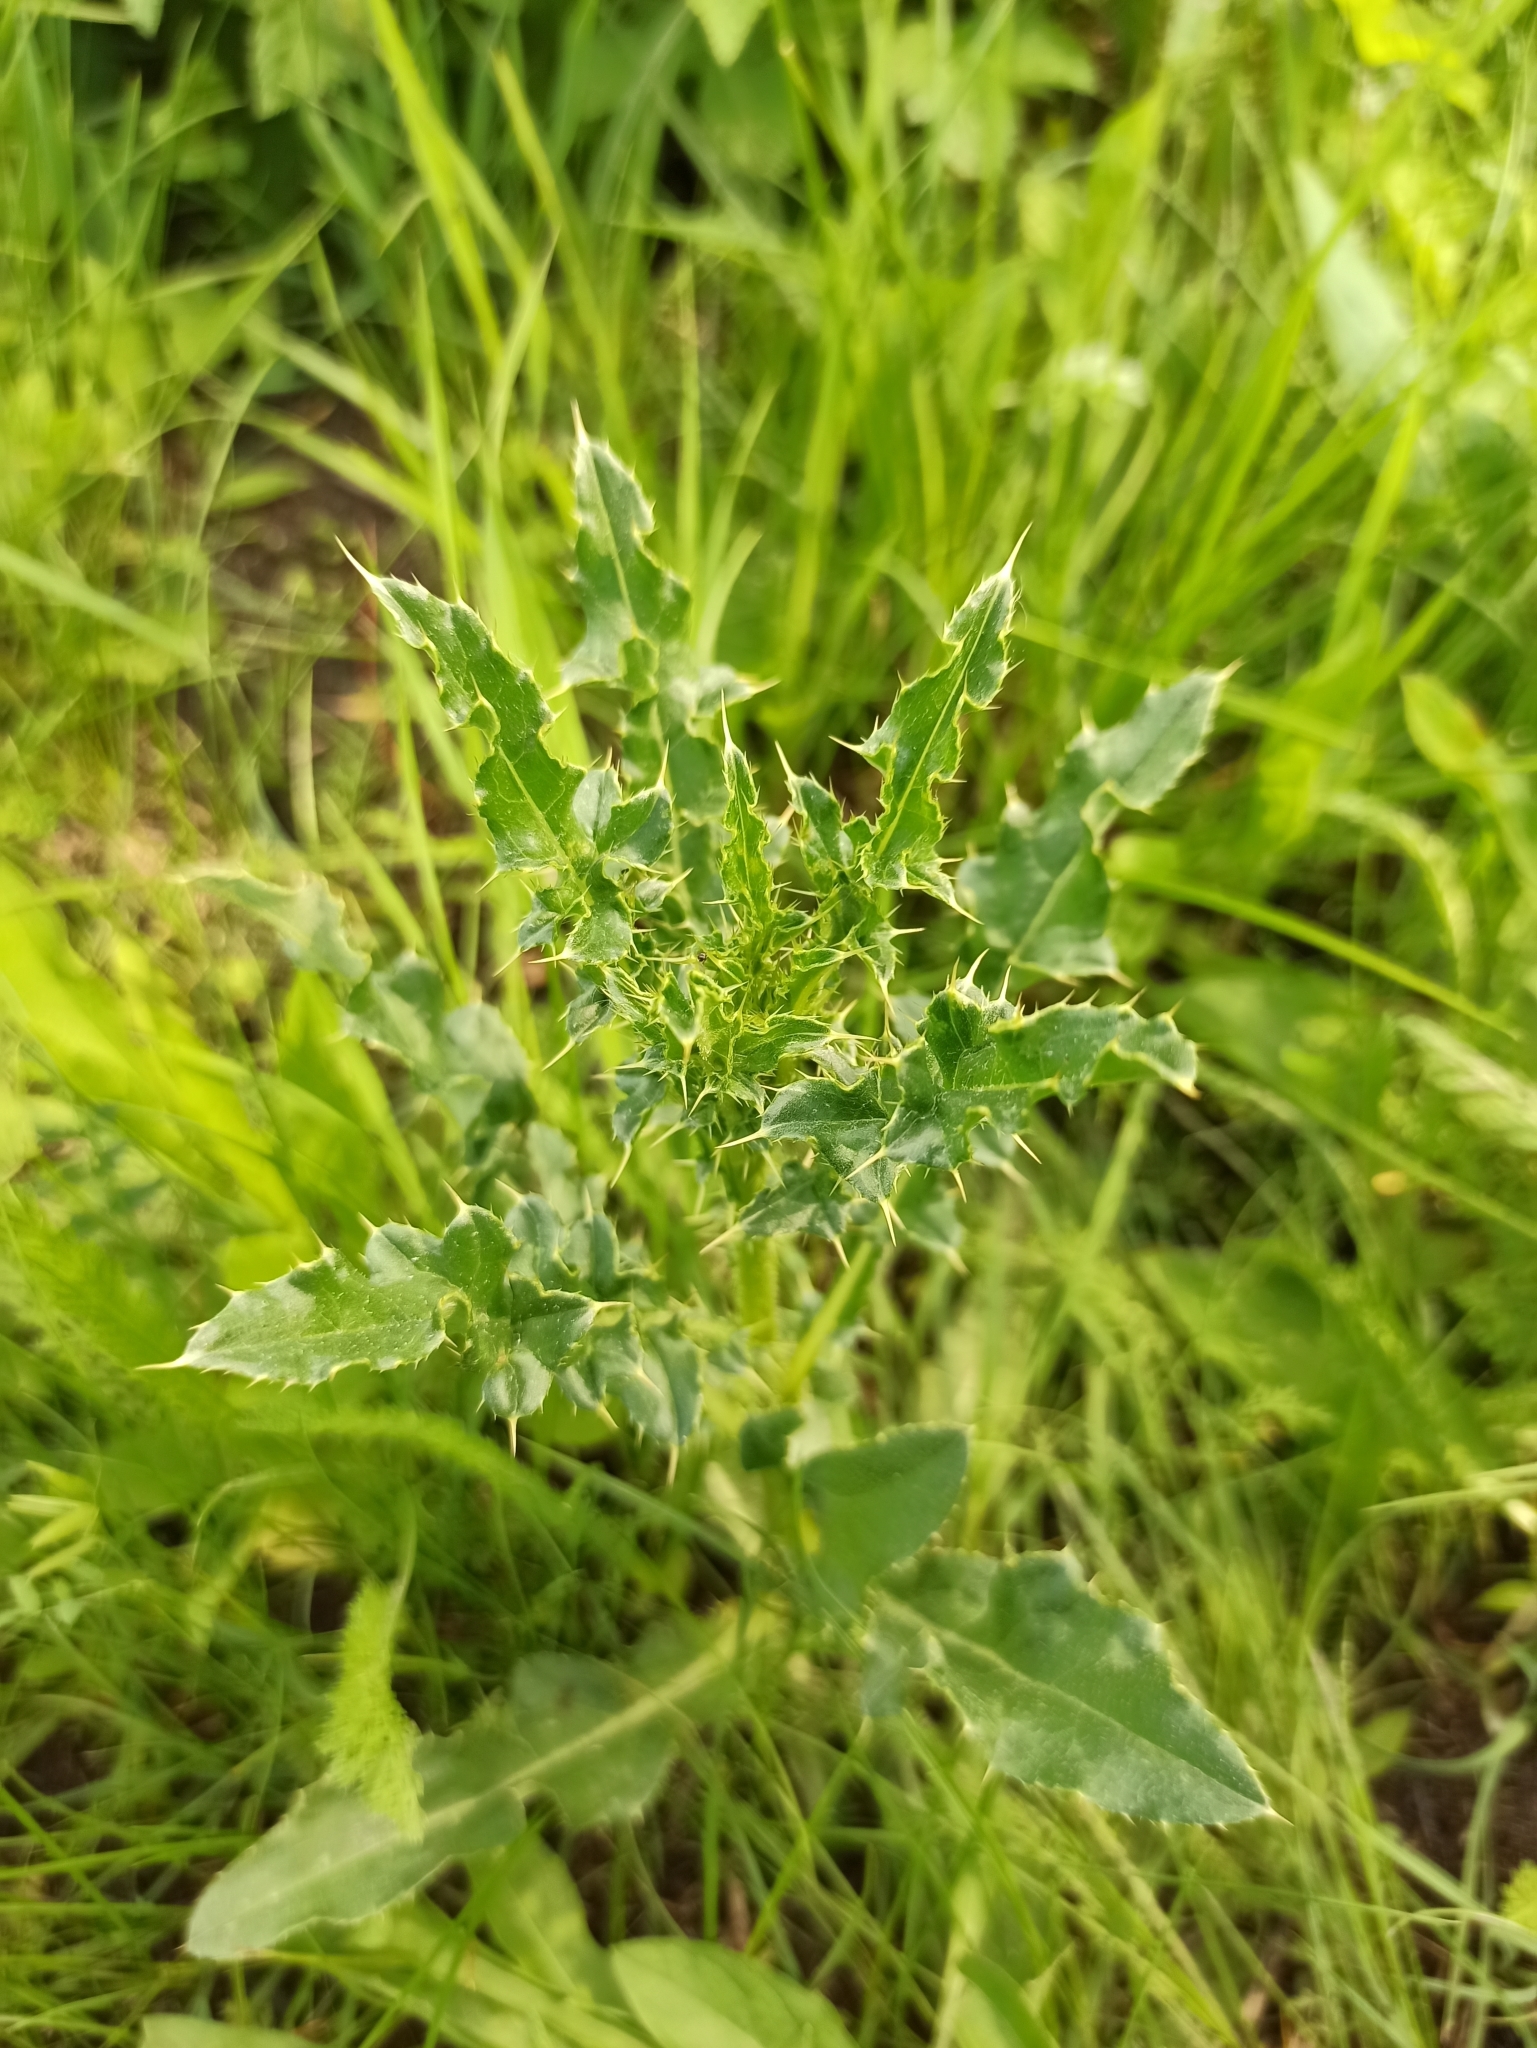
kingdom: Plantae
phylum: Tracheophyta
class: Magnoliopsida
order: Asterales
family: Asteraceae
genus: Cirsium
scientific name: Cirsium arvense
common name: Creeping thistle
